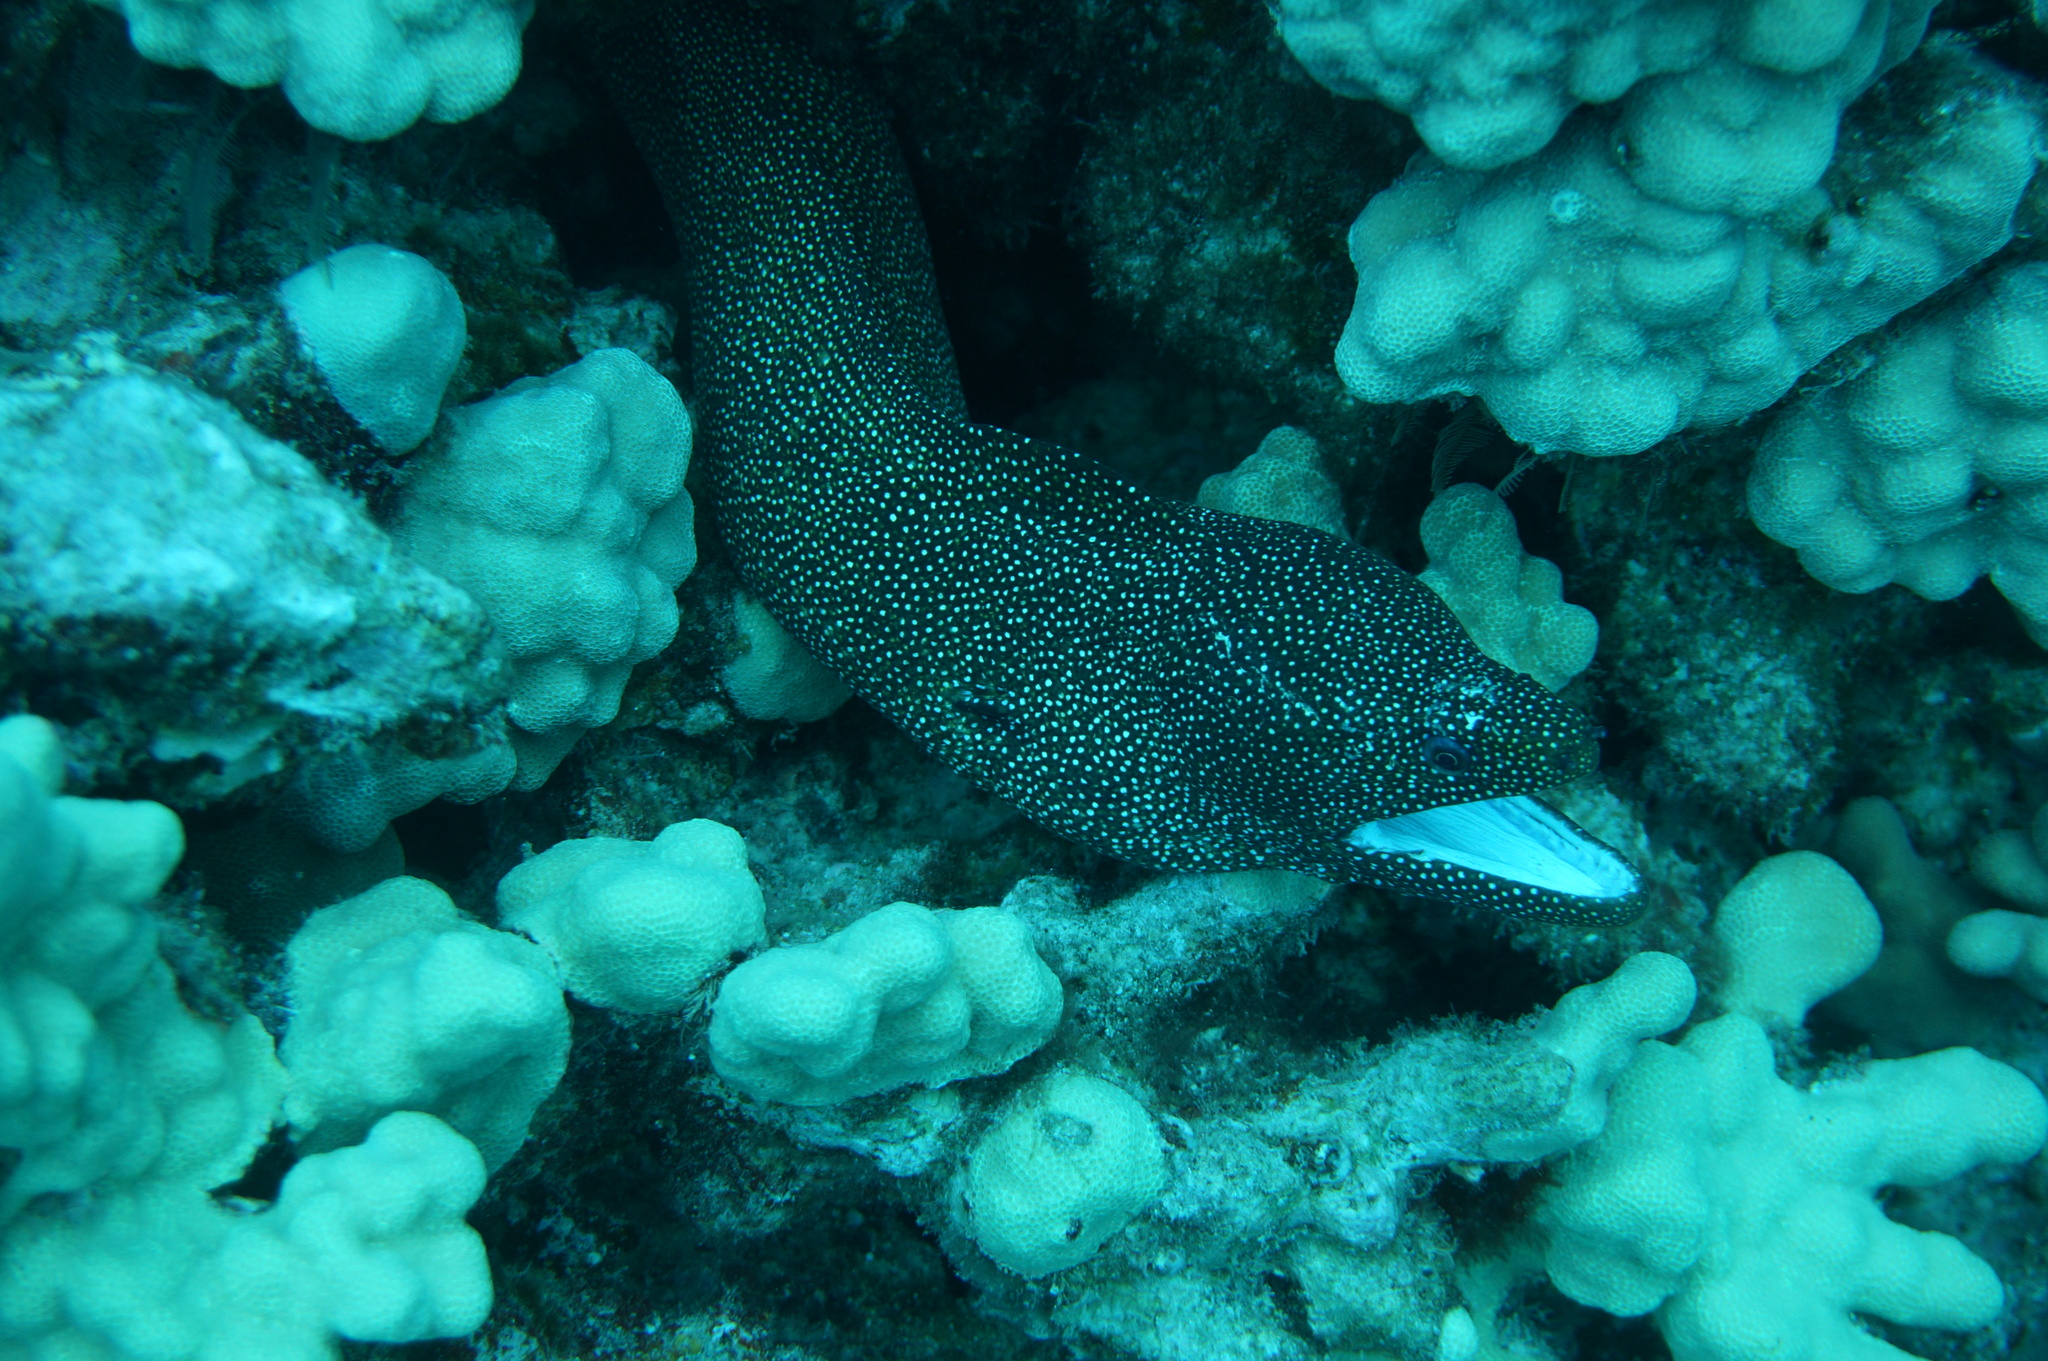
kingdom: Animalia
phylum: Chordata
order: Anguilliformes
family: Muraenidae
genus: Gymnothorax
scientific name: Gymnothorax meleagris
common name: Guineafowl moray
